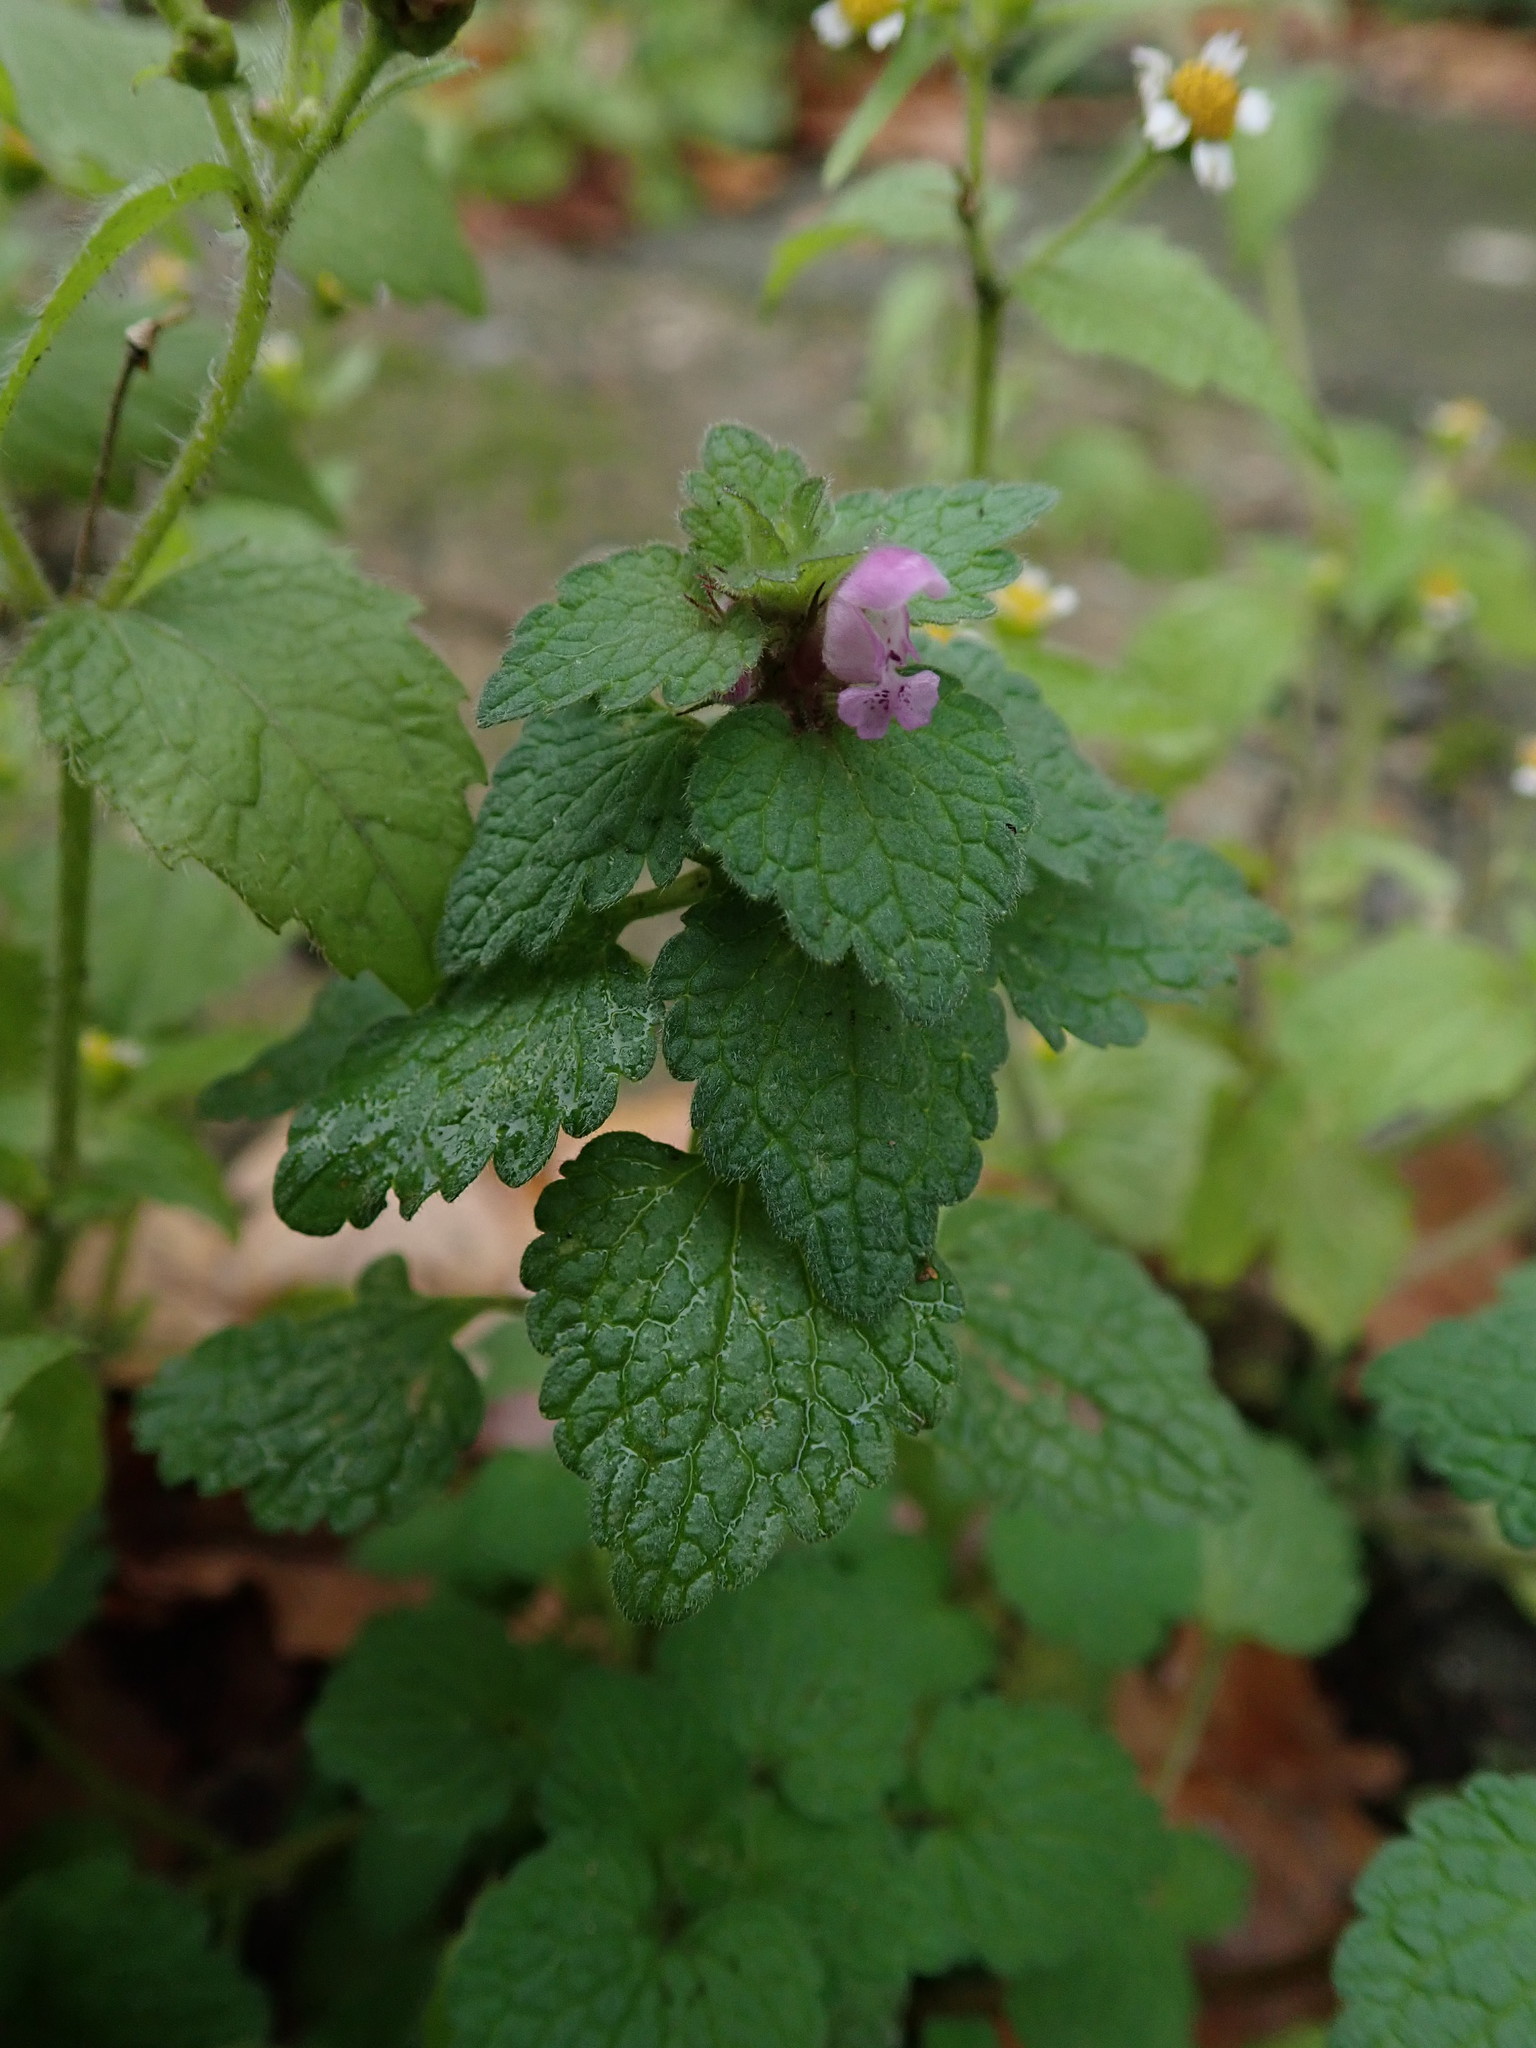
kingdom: Plantae
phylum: Tracheophyta
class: Magnoliopsida
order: Lamiales
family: Lamiaceae
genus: Lamium
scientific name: Lamium purpureum
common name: Red dead-nettle
